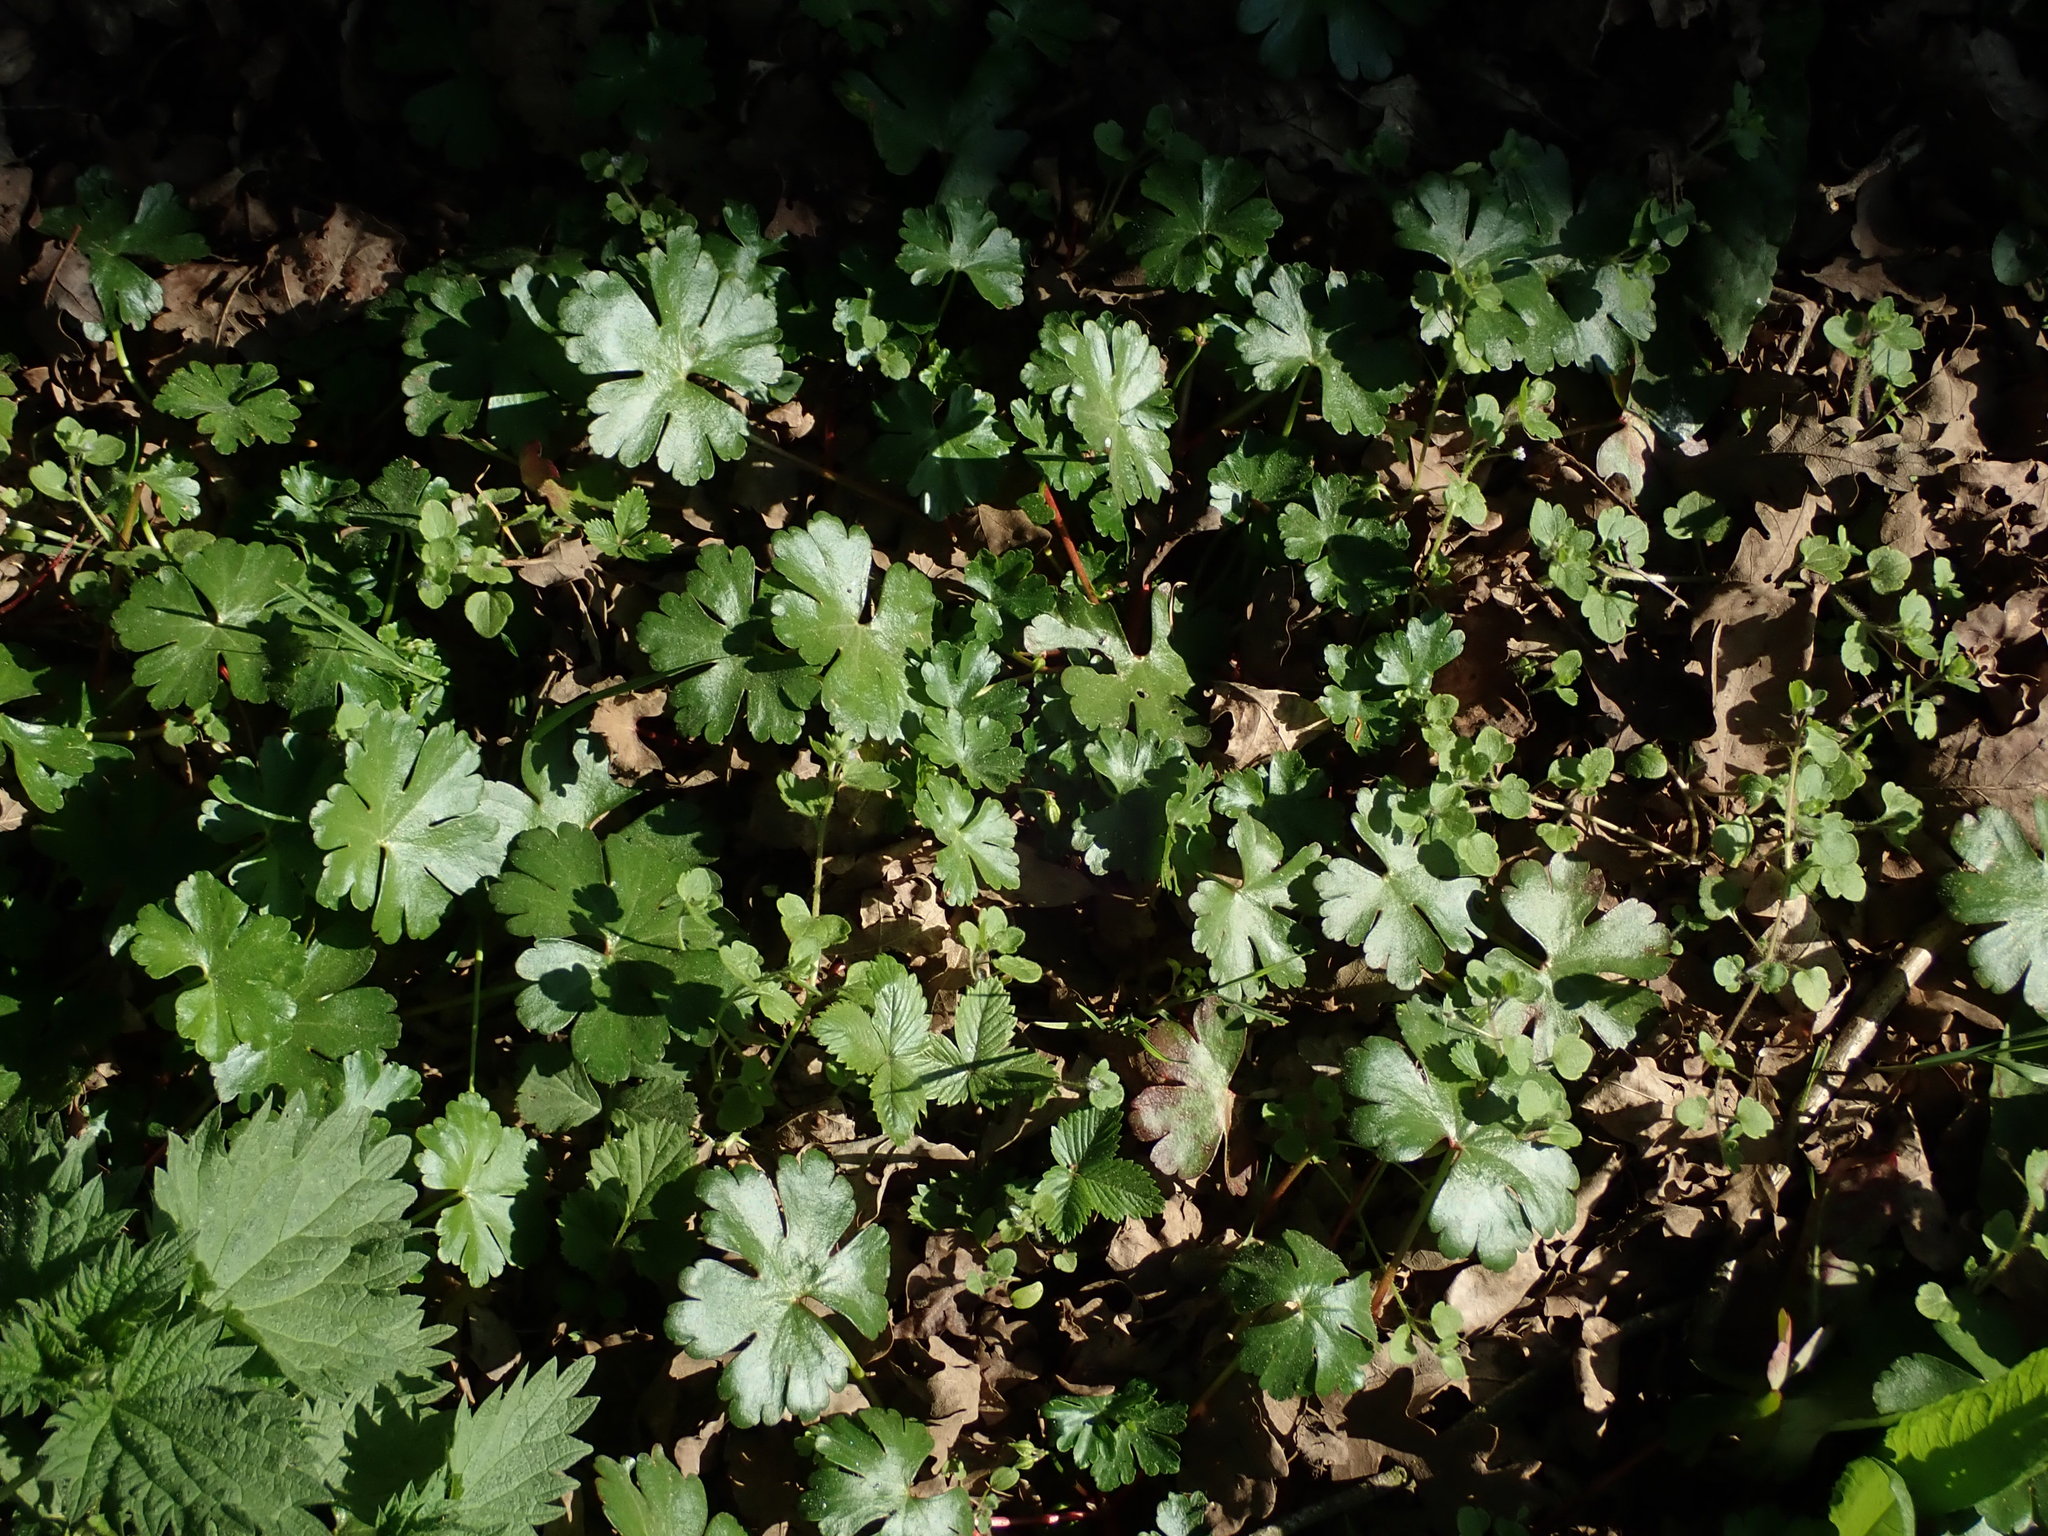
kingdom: Plantae
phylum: Tracheophyta
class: Magnoliopsida
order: Geraniales
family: Geraniaceae
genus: Geranium
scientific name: Geranium lucidum
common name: Shining crane's-bill
